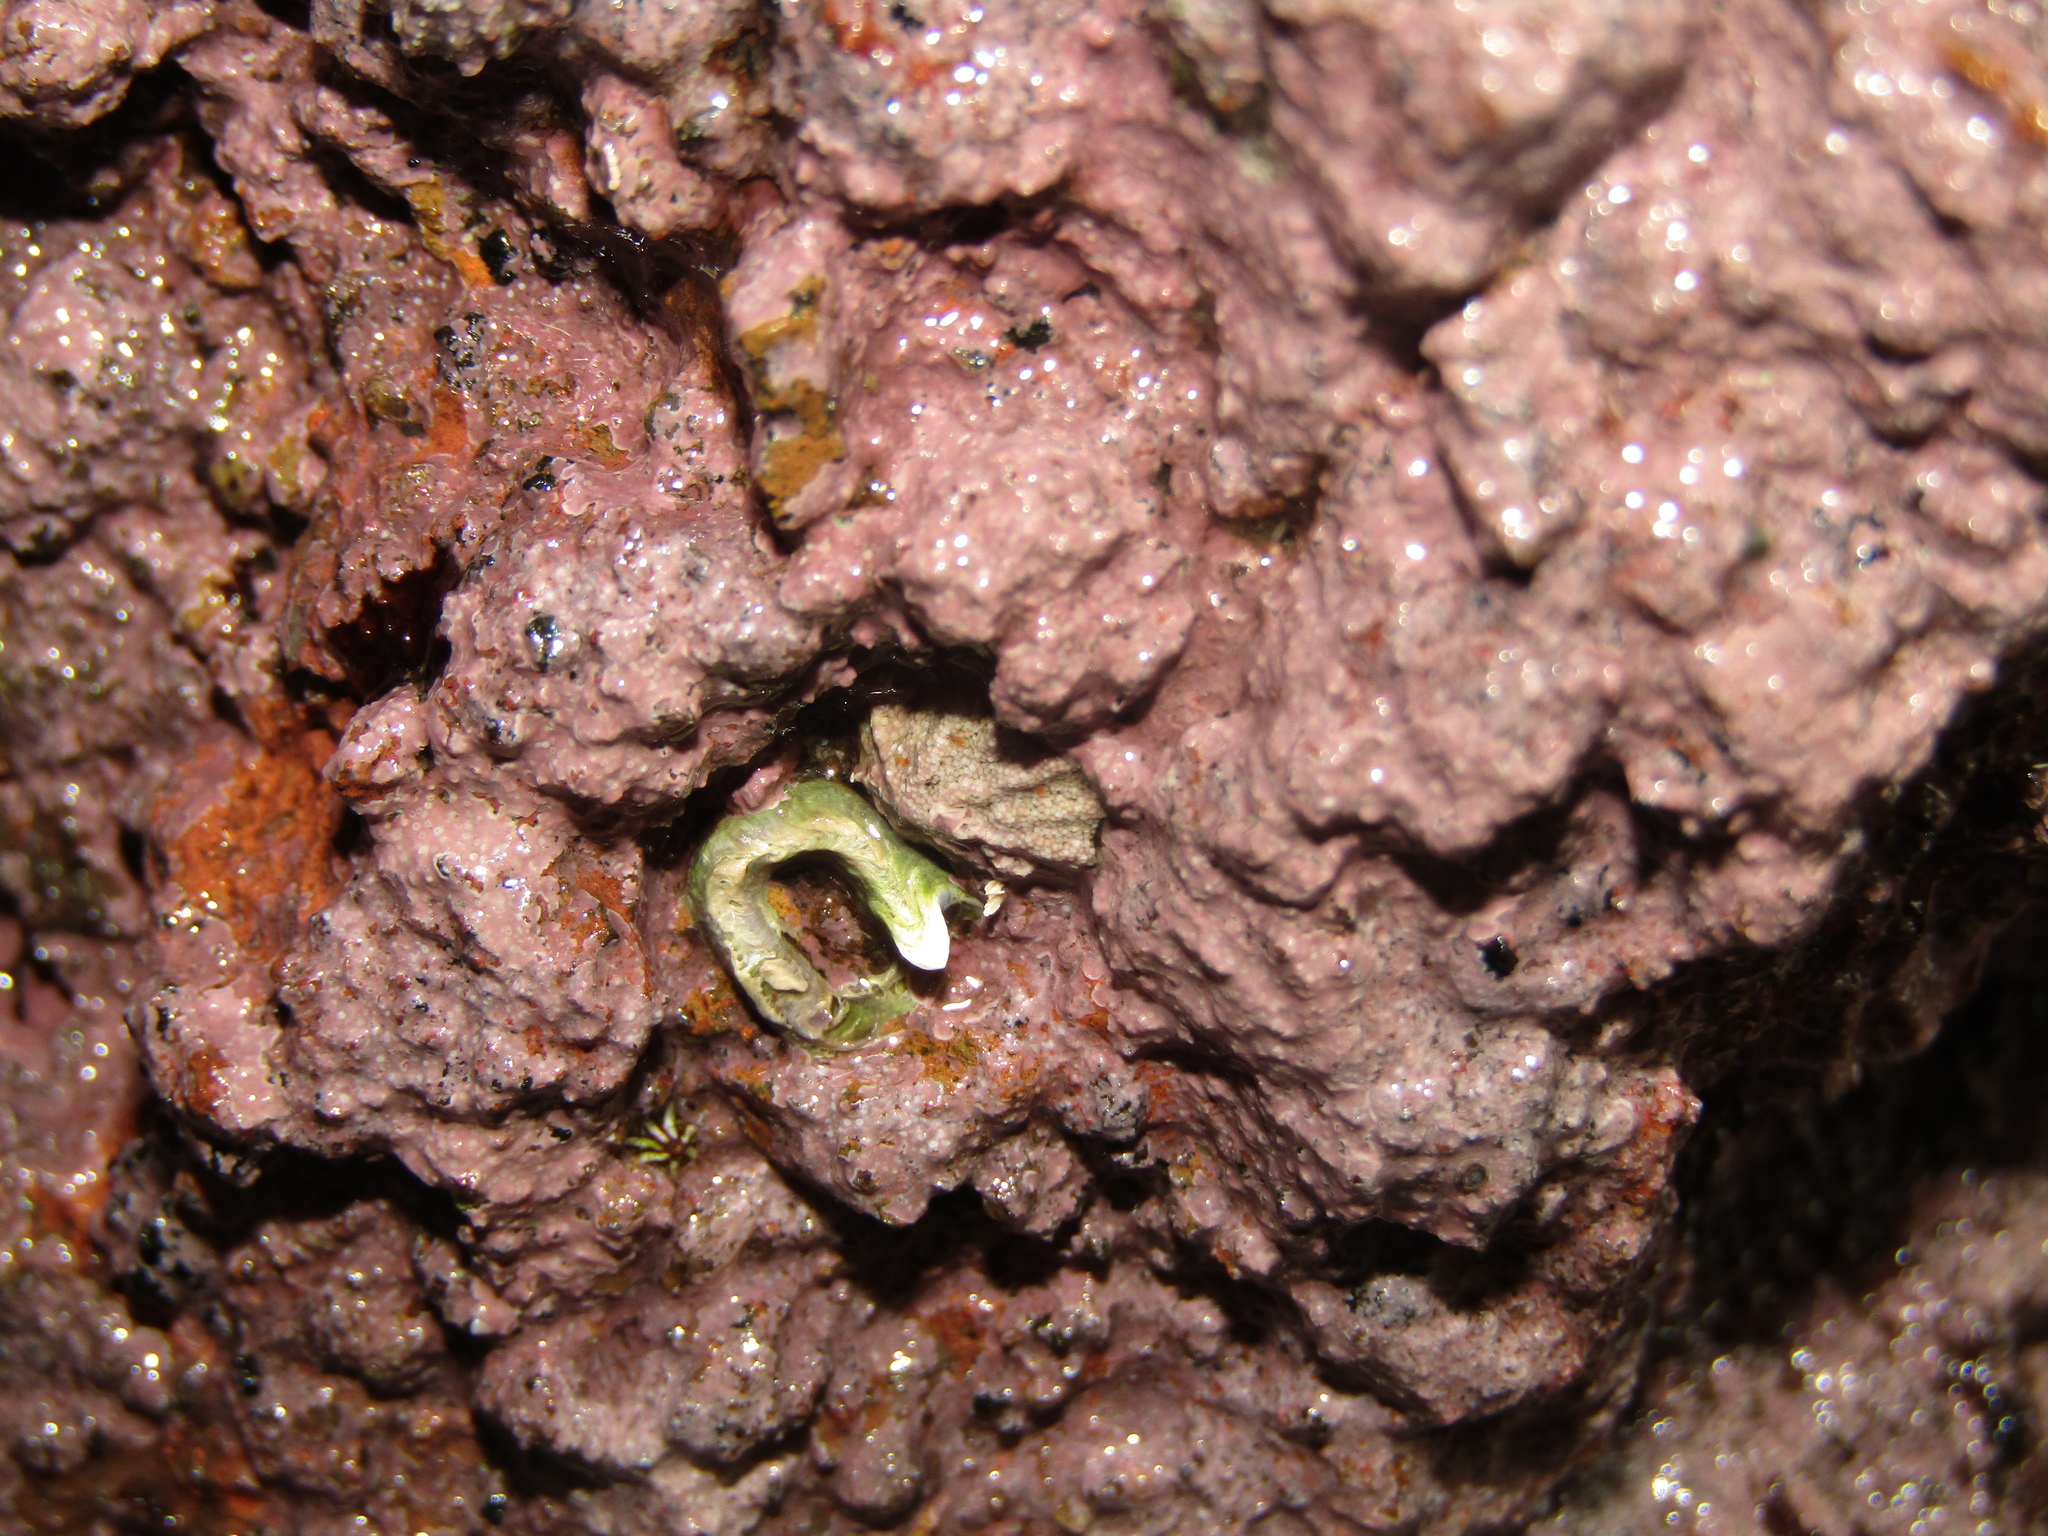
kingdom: Animalia
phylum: Mollusca
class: Gastropoda
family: Lottiidae
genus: Patelloida
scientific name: Patelloida corticata
